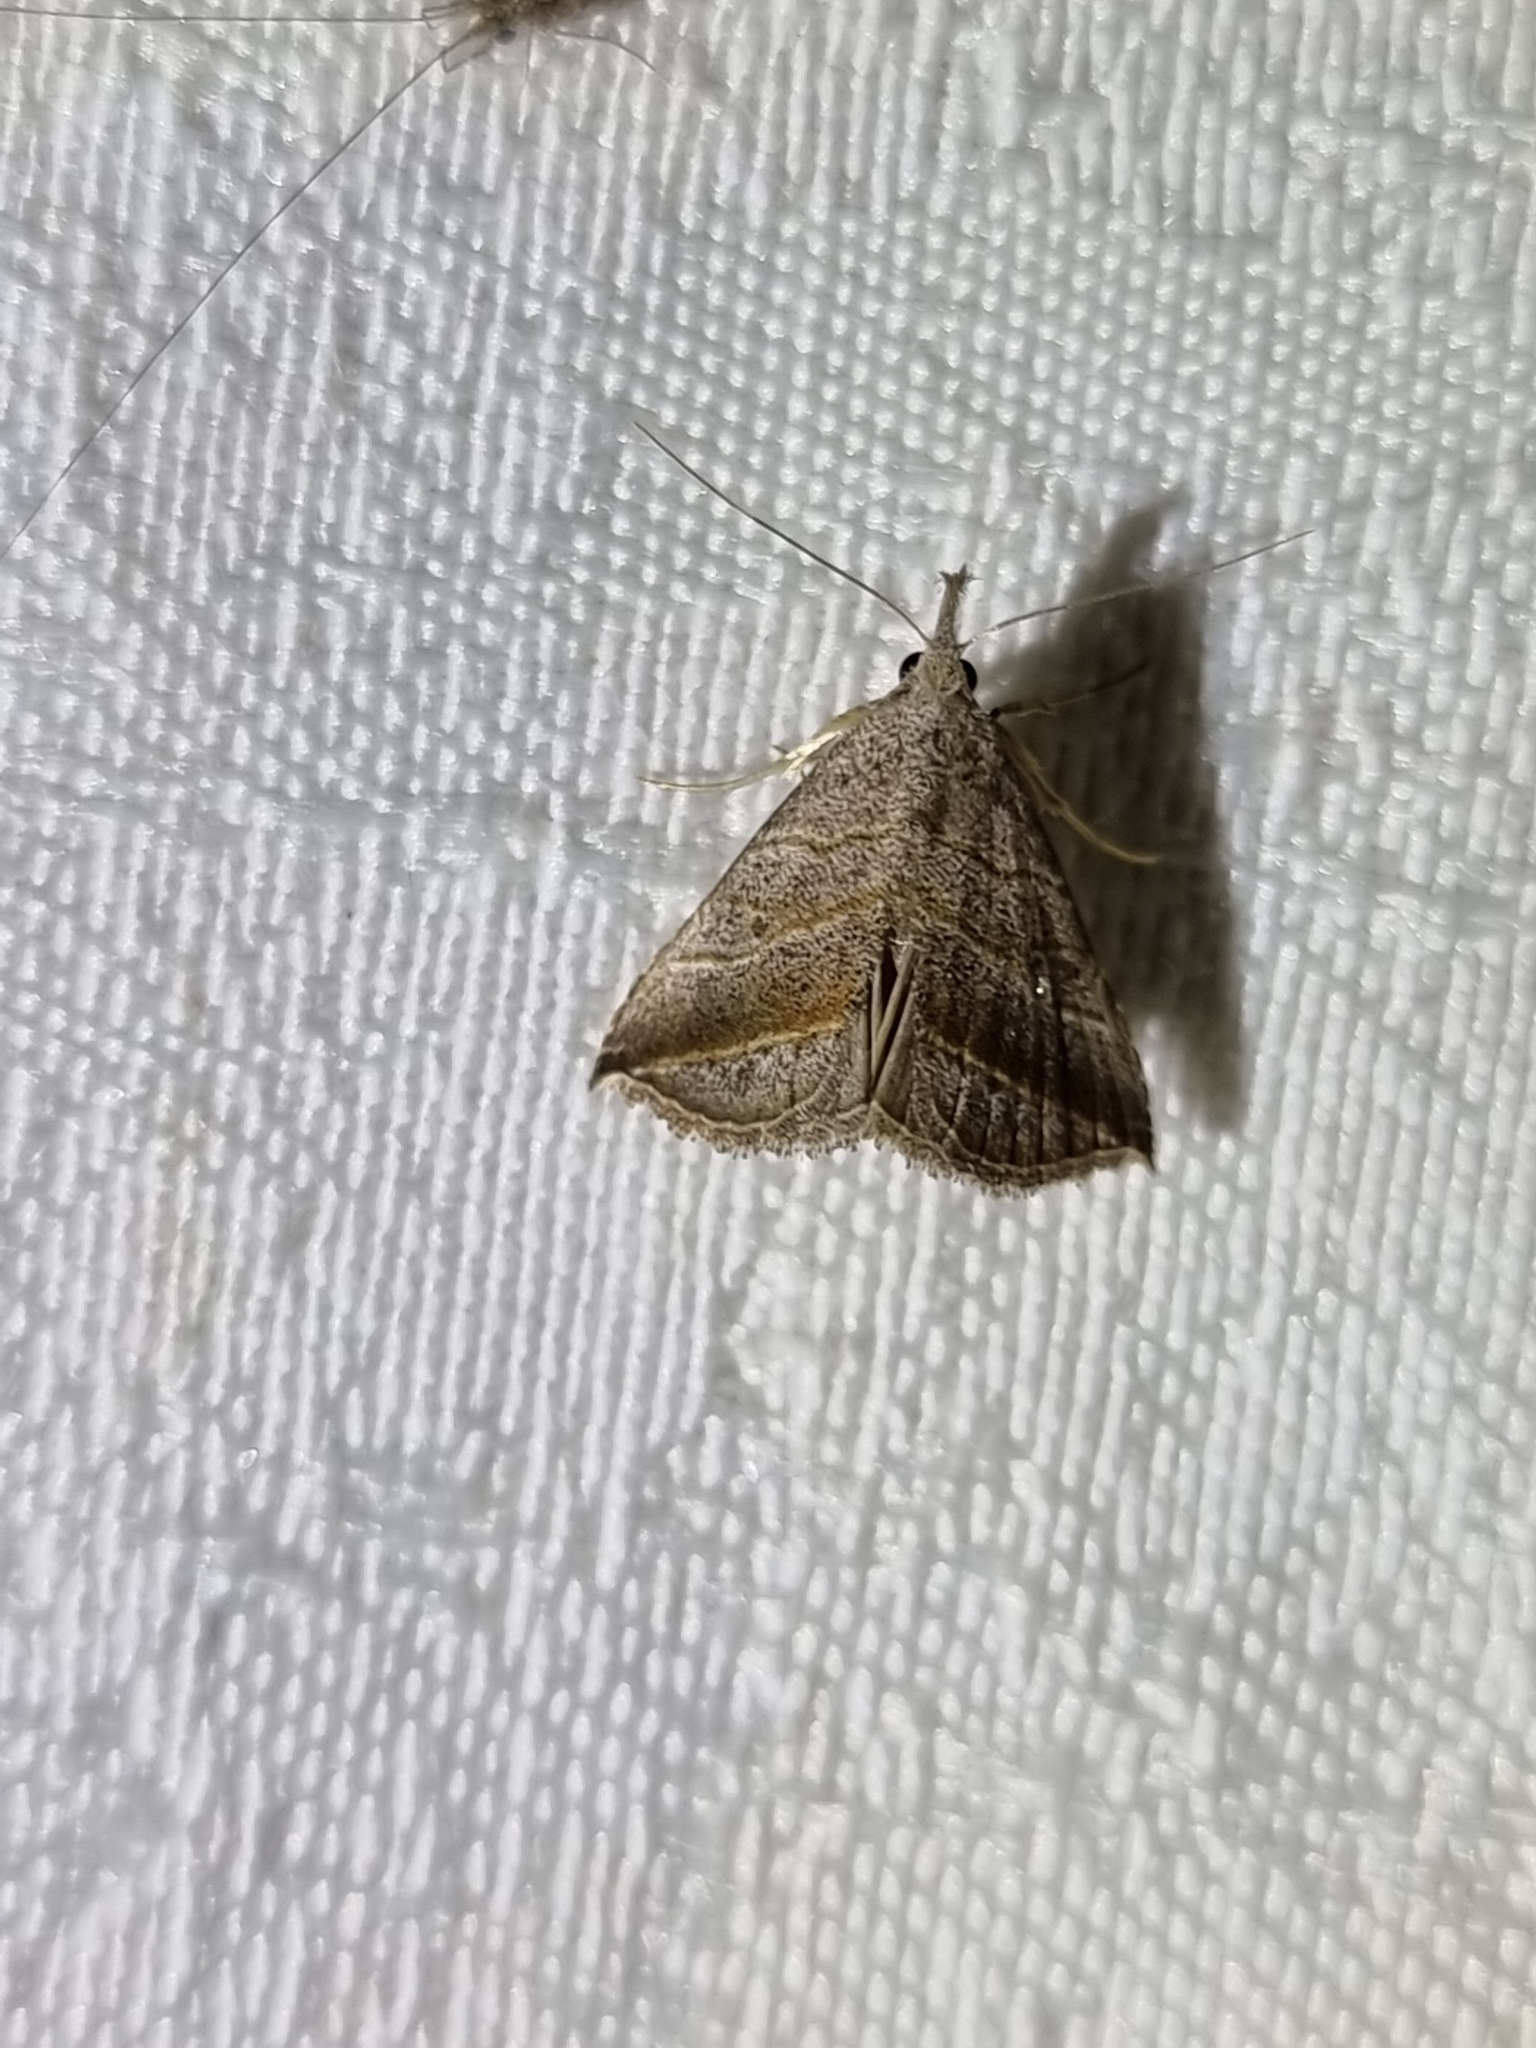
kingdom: Animalia
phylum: Arthropoda
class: Insecta
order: Lepidoptera
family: Erebidae
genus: Britha
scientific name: Britha biguttata
